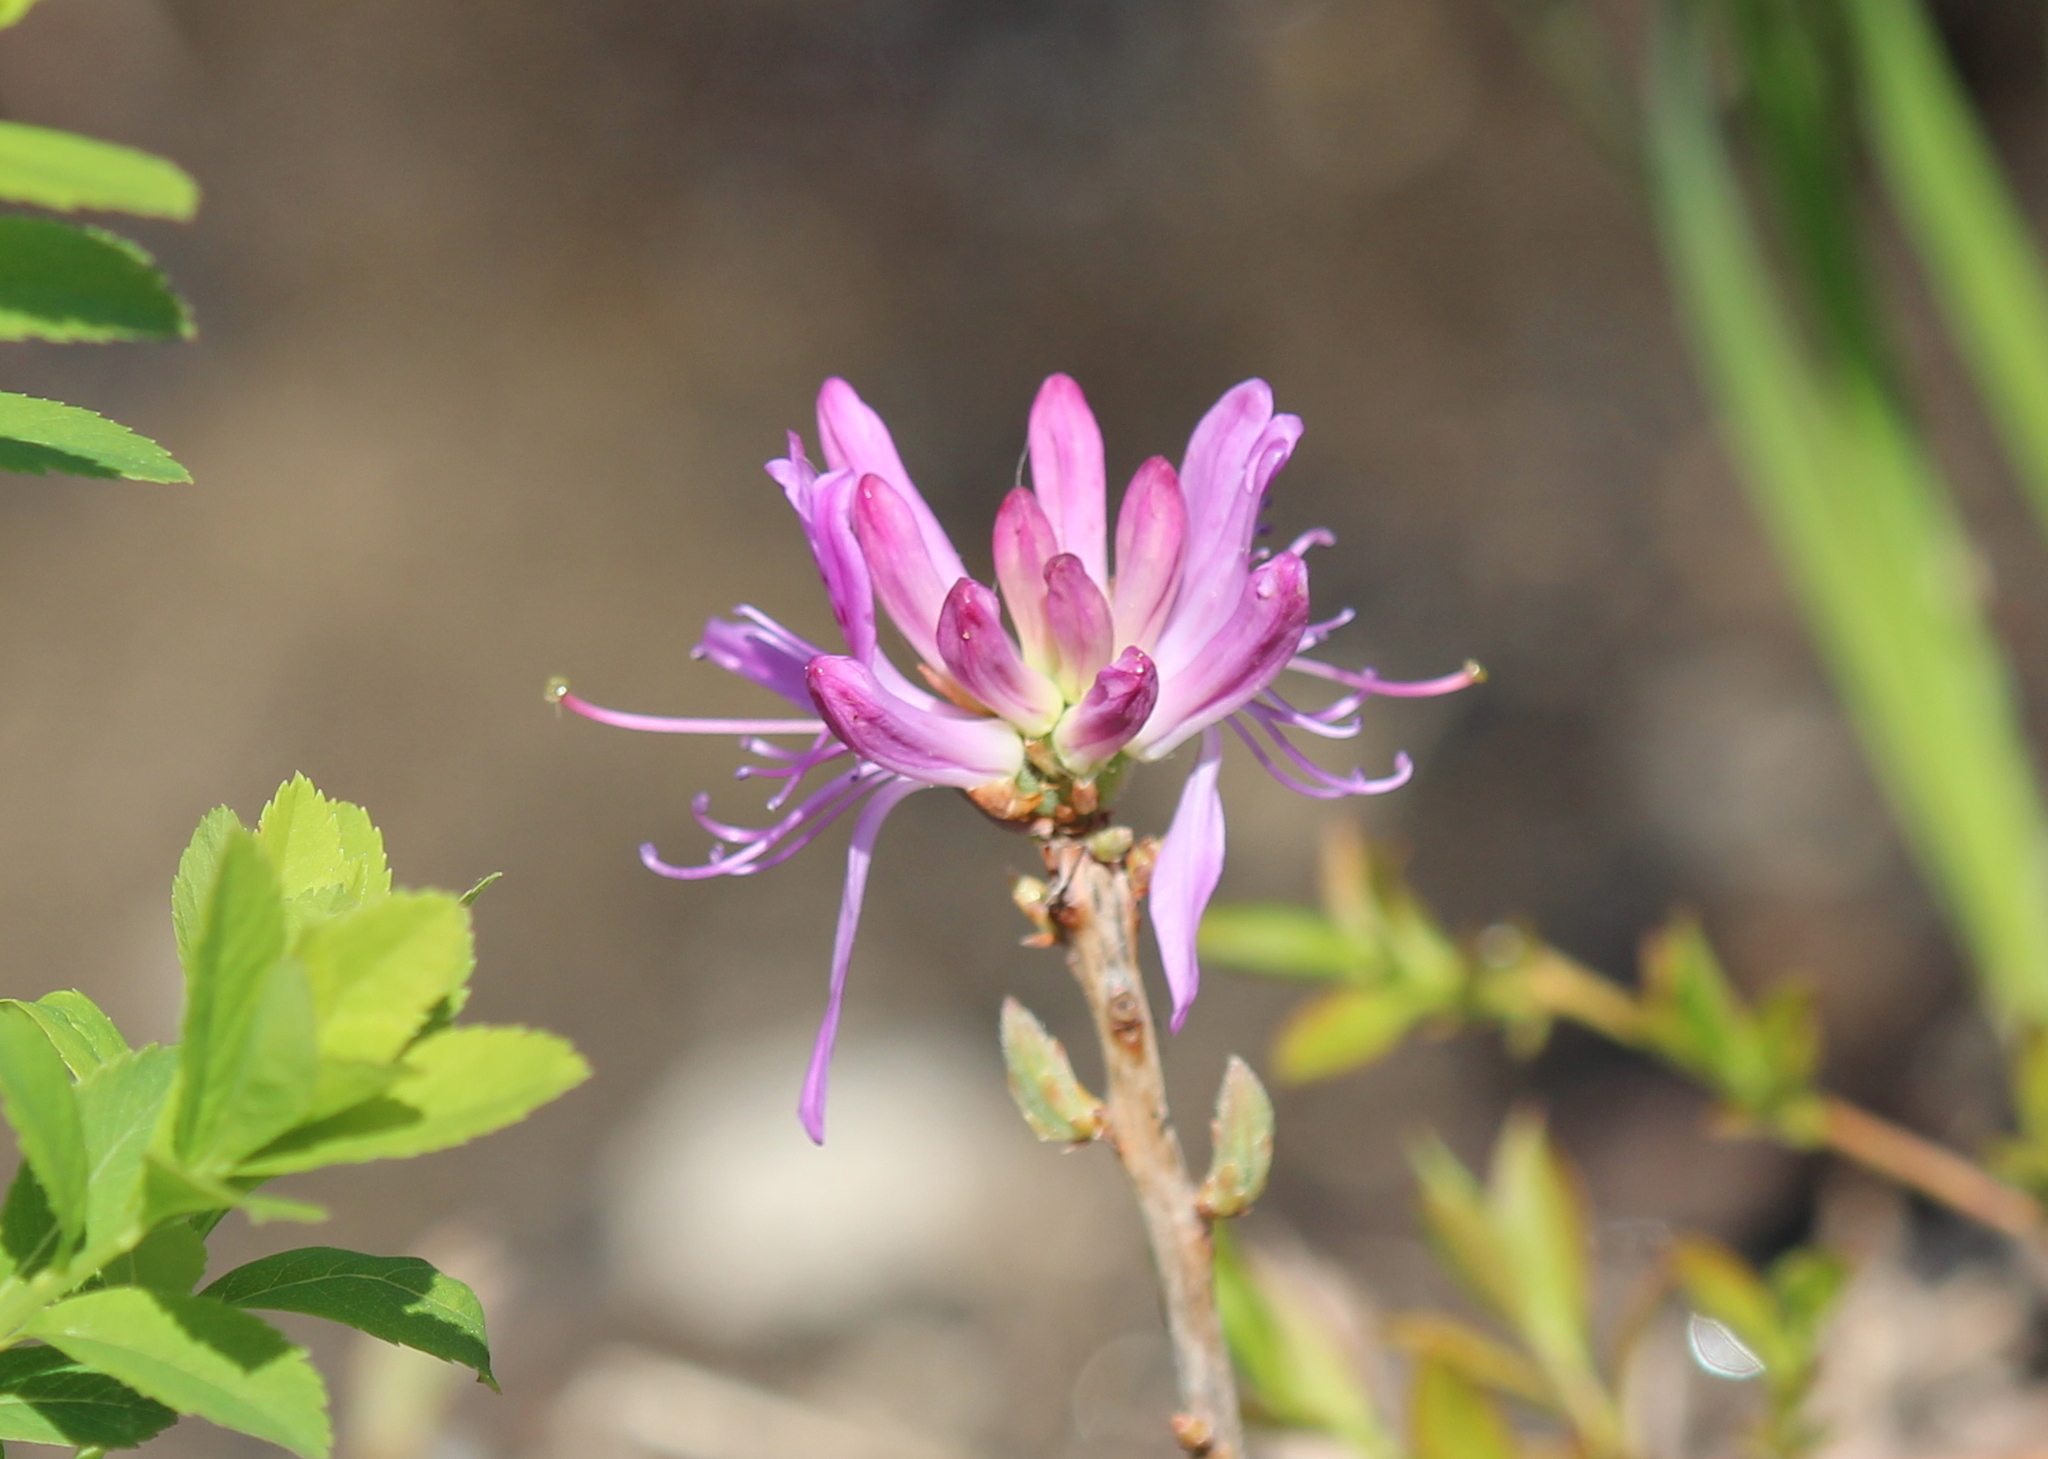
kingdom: Plantae
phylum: Tracheophyta
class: Magnoliopsida
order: Ericales
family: Ericaceae
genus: Rhododendron
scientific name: Rhododendron canadense
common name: Rhodora
